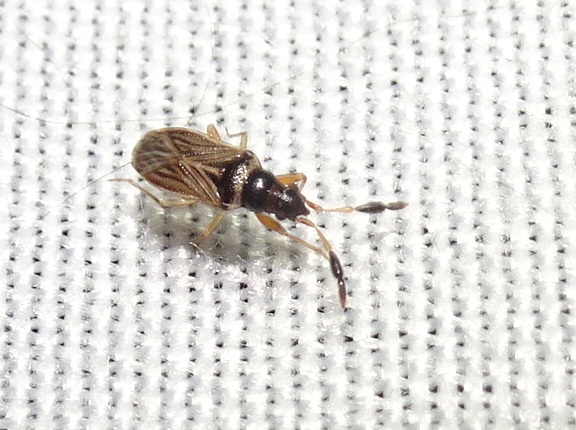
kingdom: Animalia
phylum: Arthropoda
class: Insecta
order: Hemiptera
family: Rhyparochromidae
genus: Ptochiomera
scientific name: Ptochiomera nodosa
